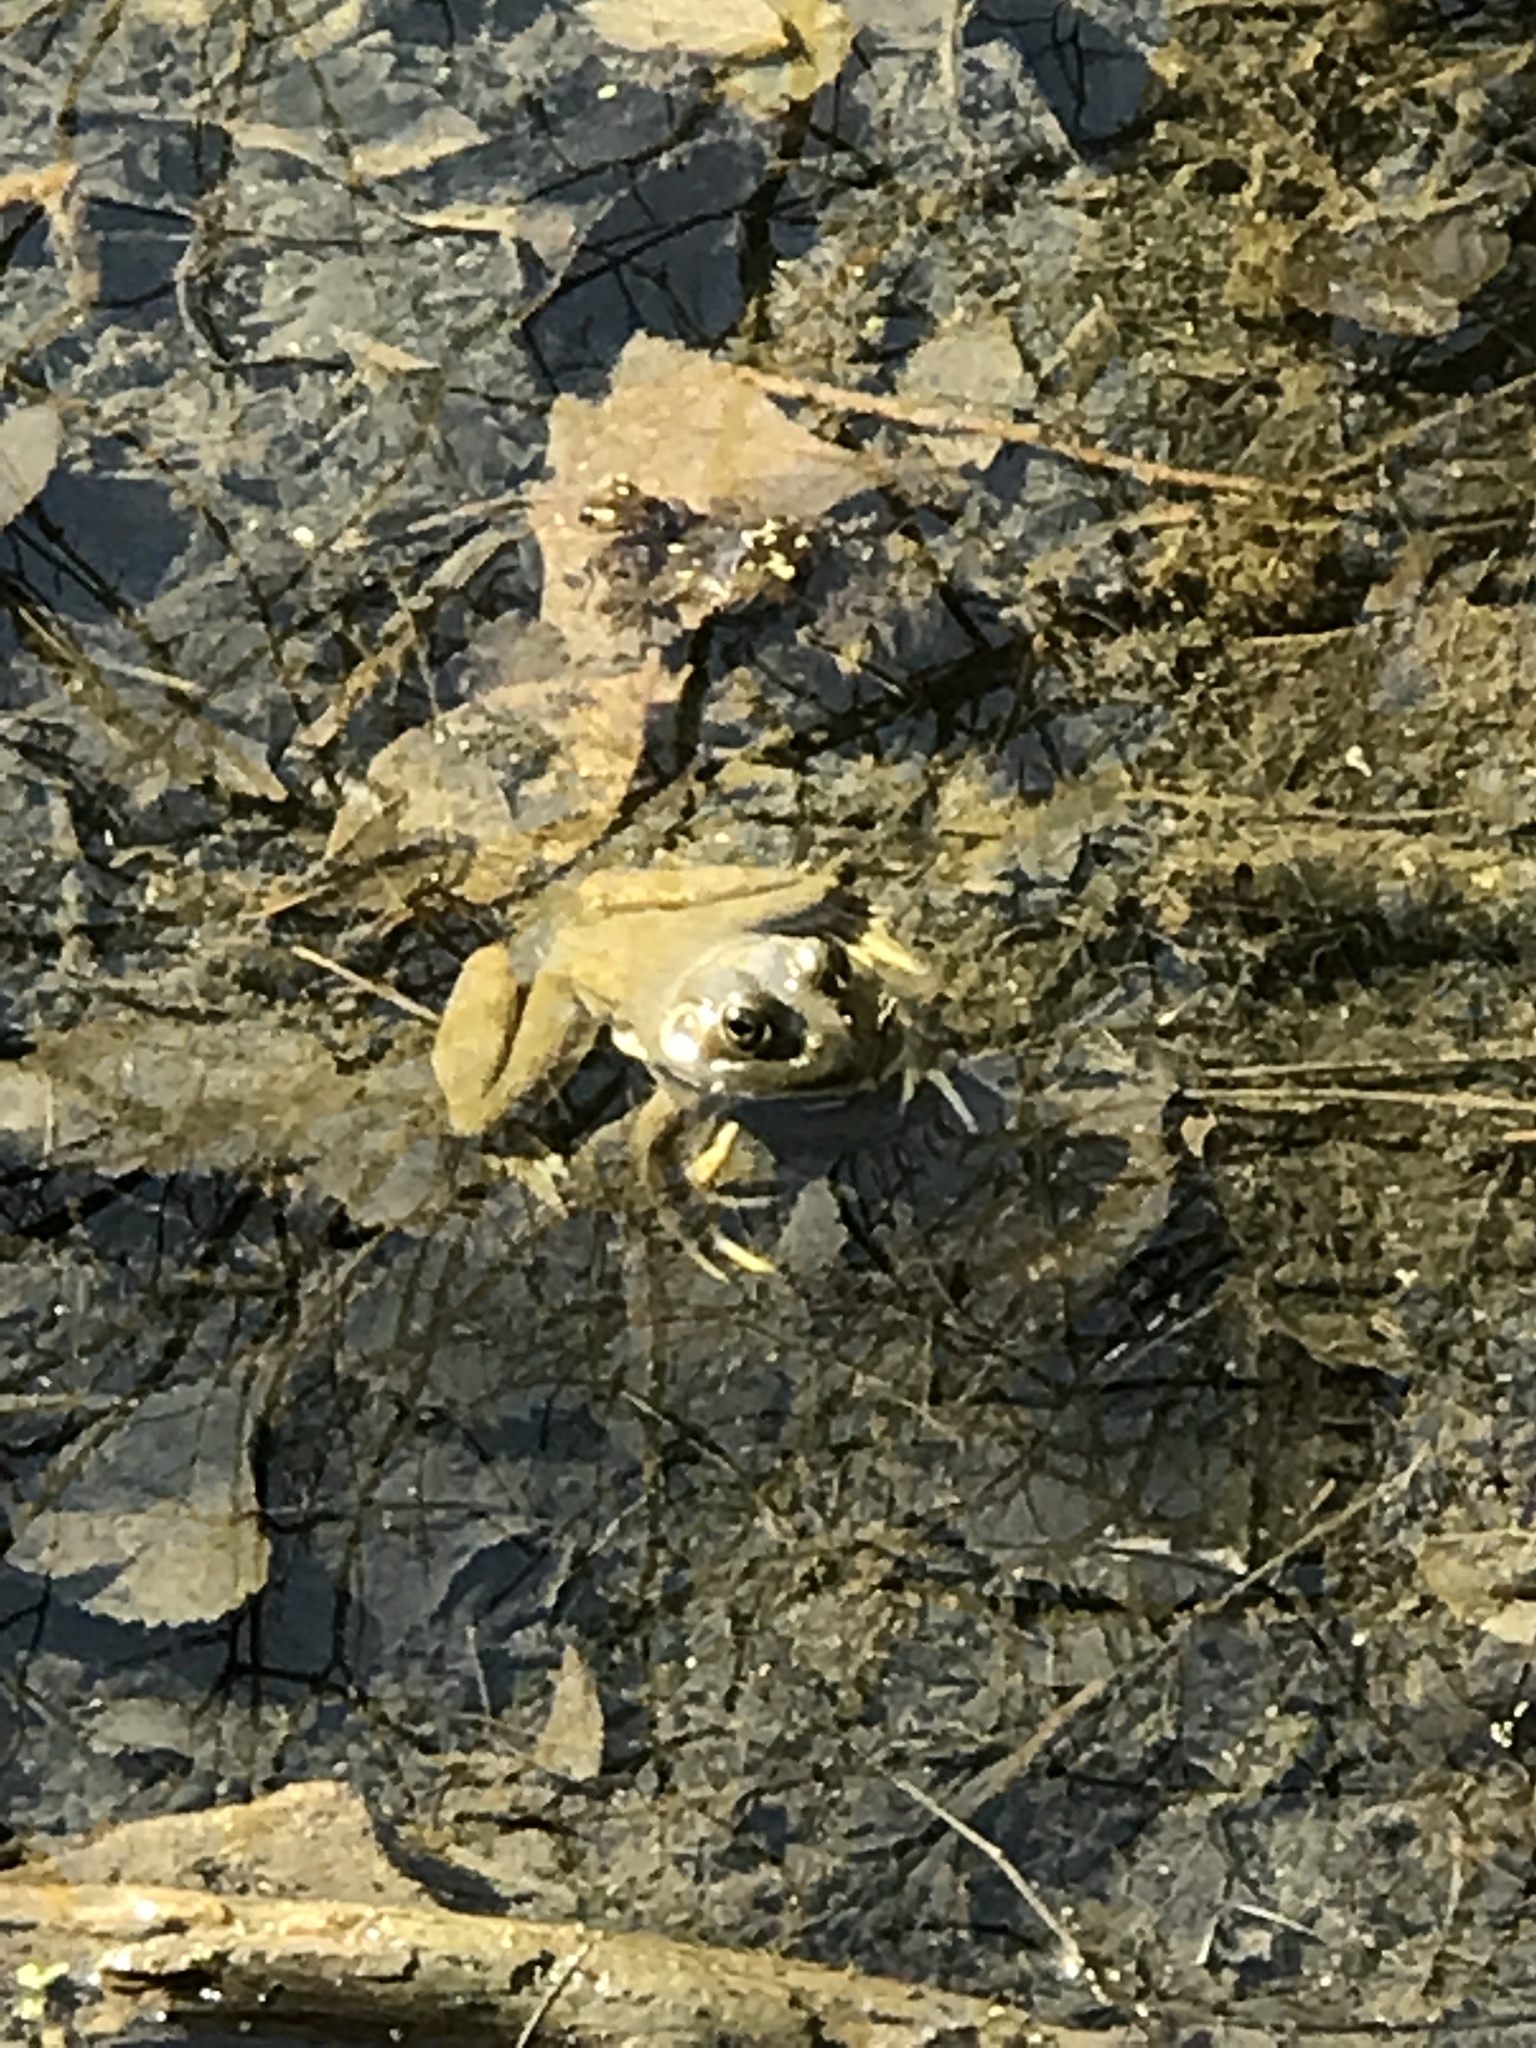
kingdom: Animalia
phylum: Chordata
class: Amphibia
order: Anura
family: Ranidae
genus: Lithobates
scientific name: Lithobates catesbeianus
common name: American bullfrog
